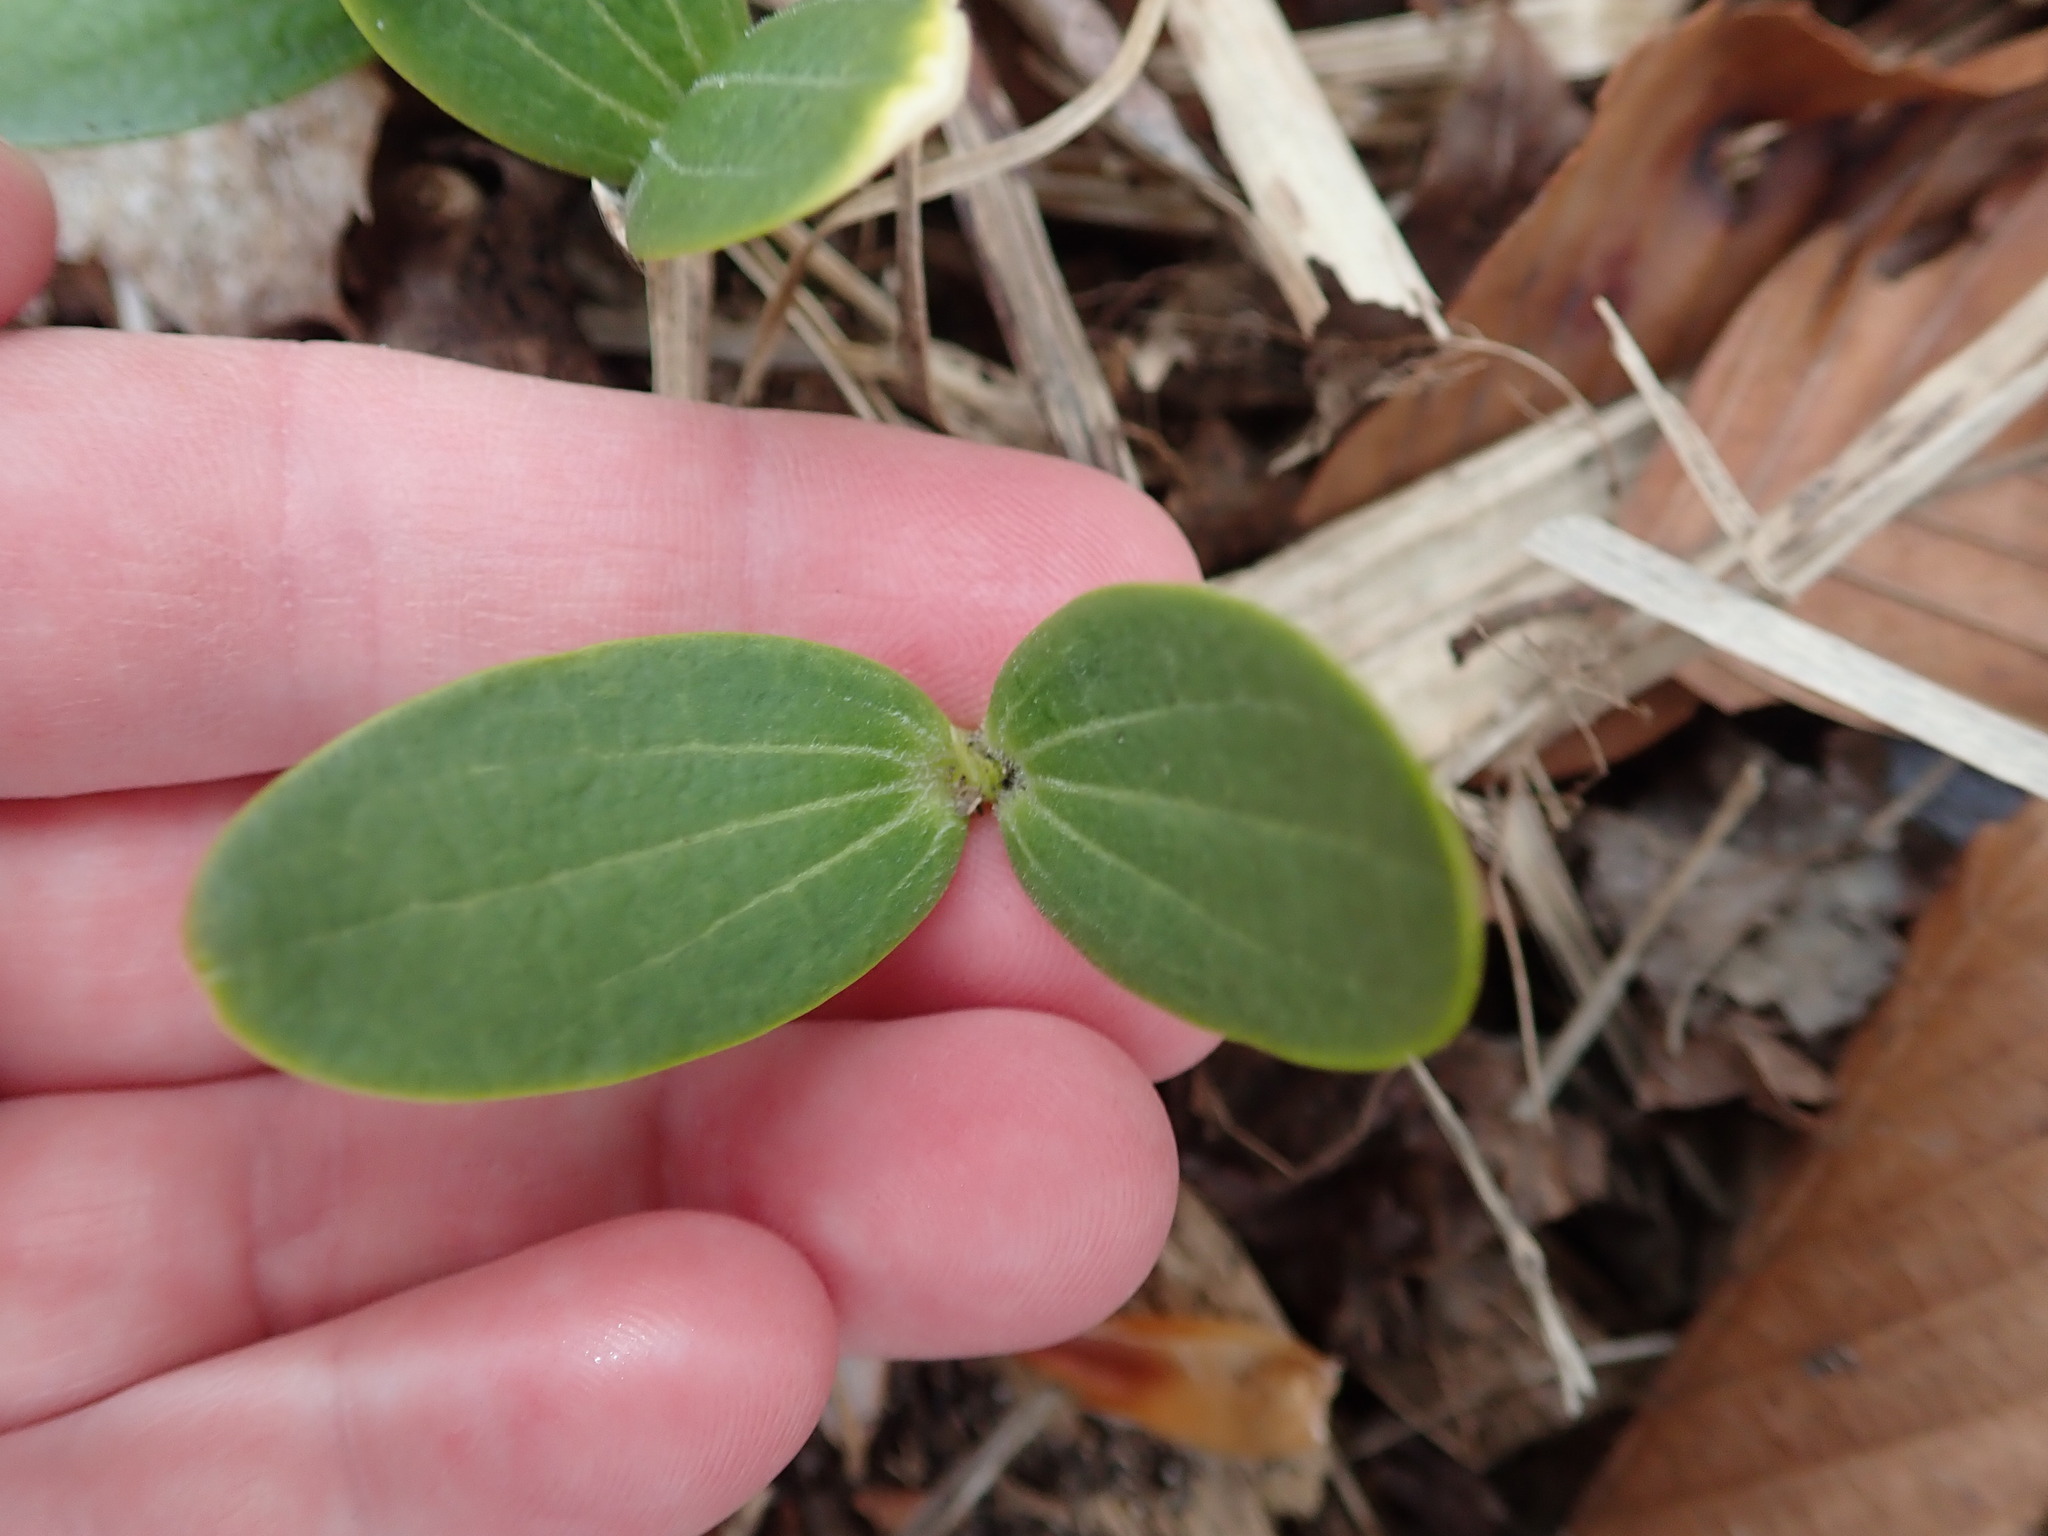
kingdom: Plantae
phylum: Tracheophyta
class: Magnoliopsida
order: Cucurbitales
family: Cucurbitaceae
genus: Echinocystis
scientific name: Echinocystis lobata
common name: Wild cucumber
